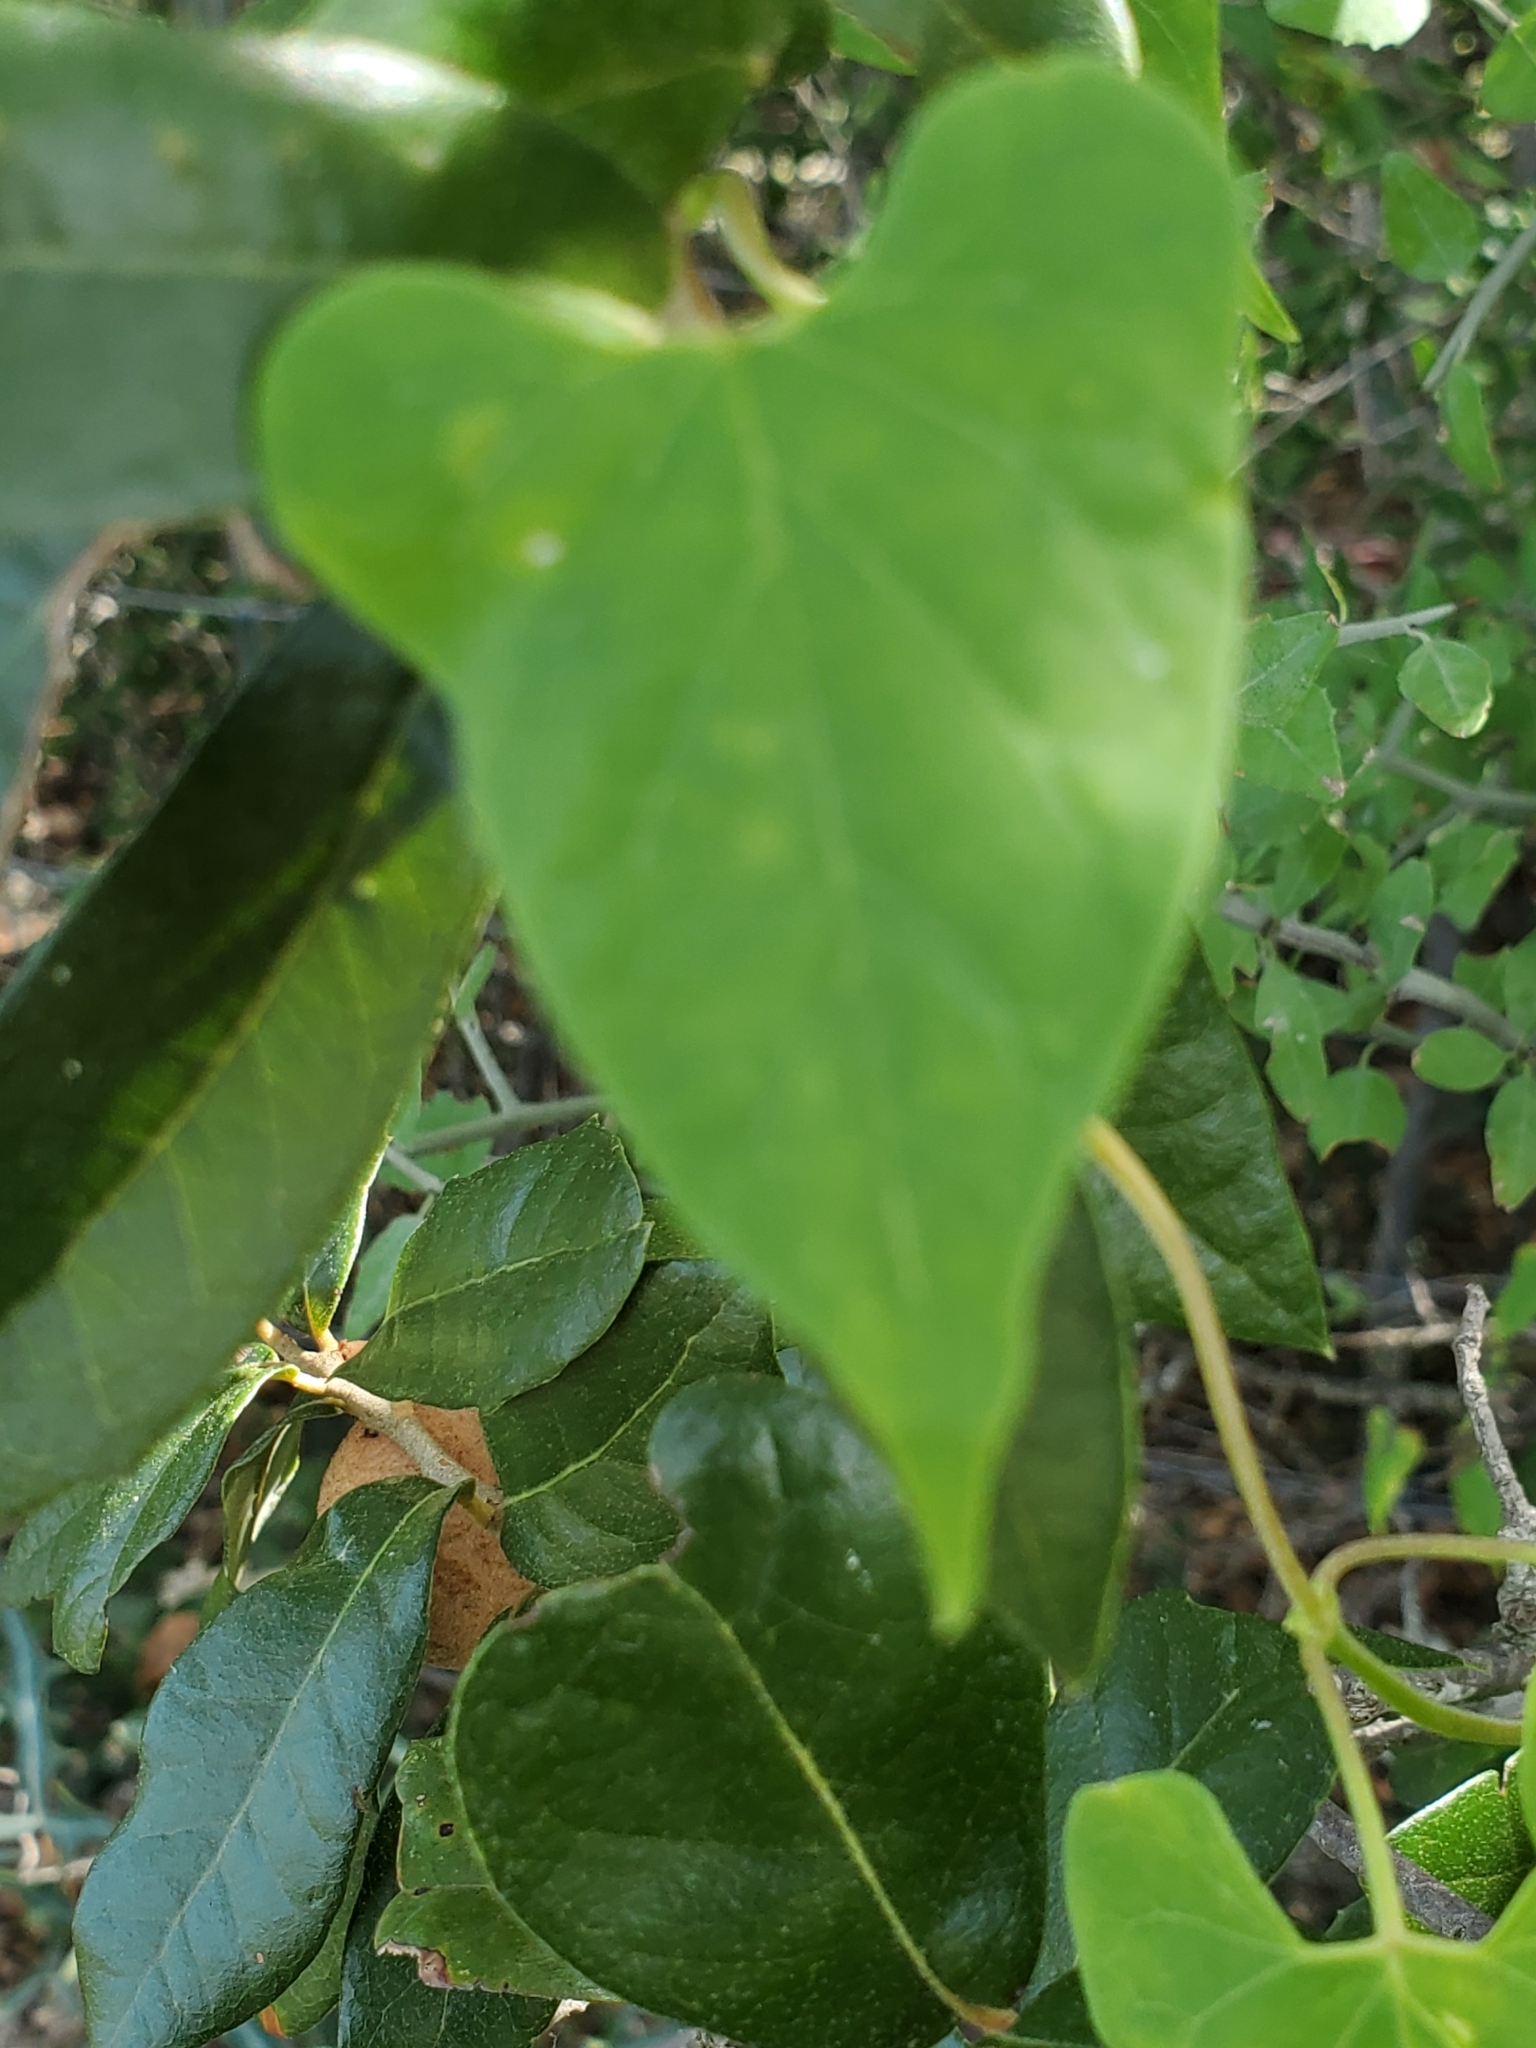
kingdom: Plantae
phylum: Tracheophyta
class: Magnoliopsida
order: Gentianales
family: Apocynaceae
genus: Cynanchum
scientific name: Cynanchum racemosum
